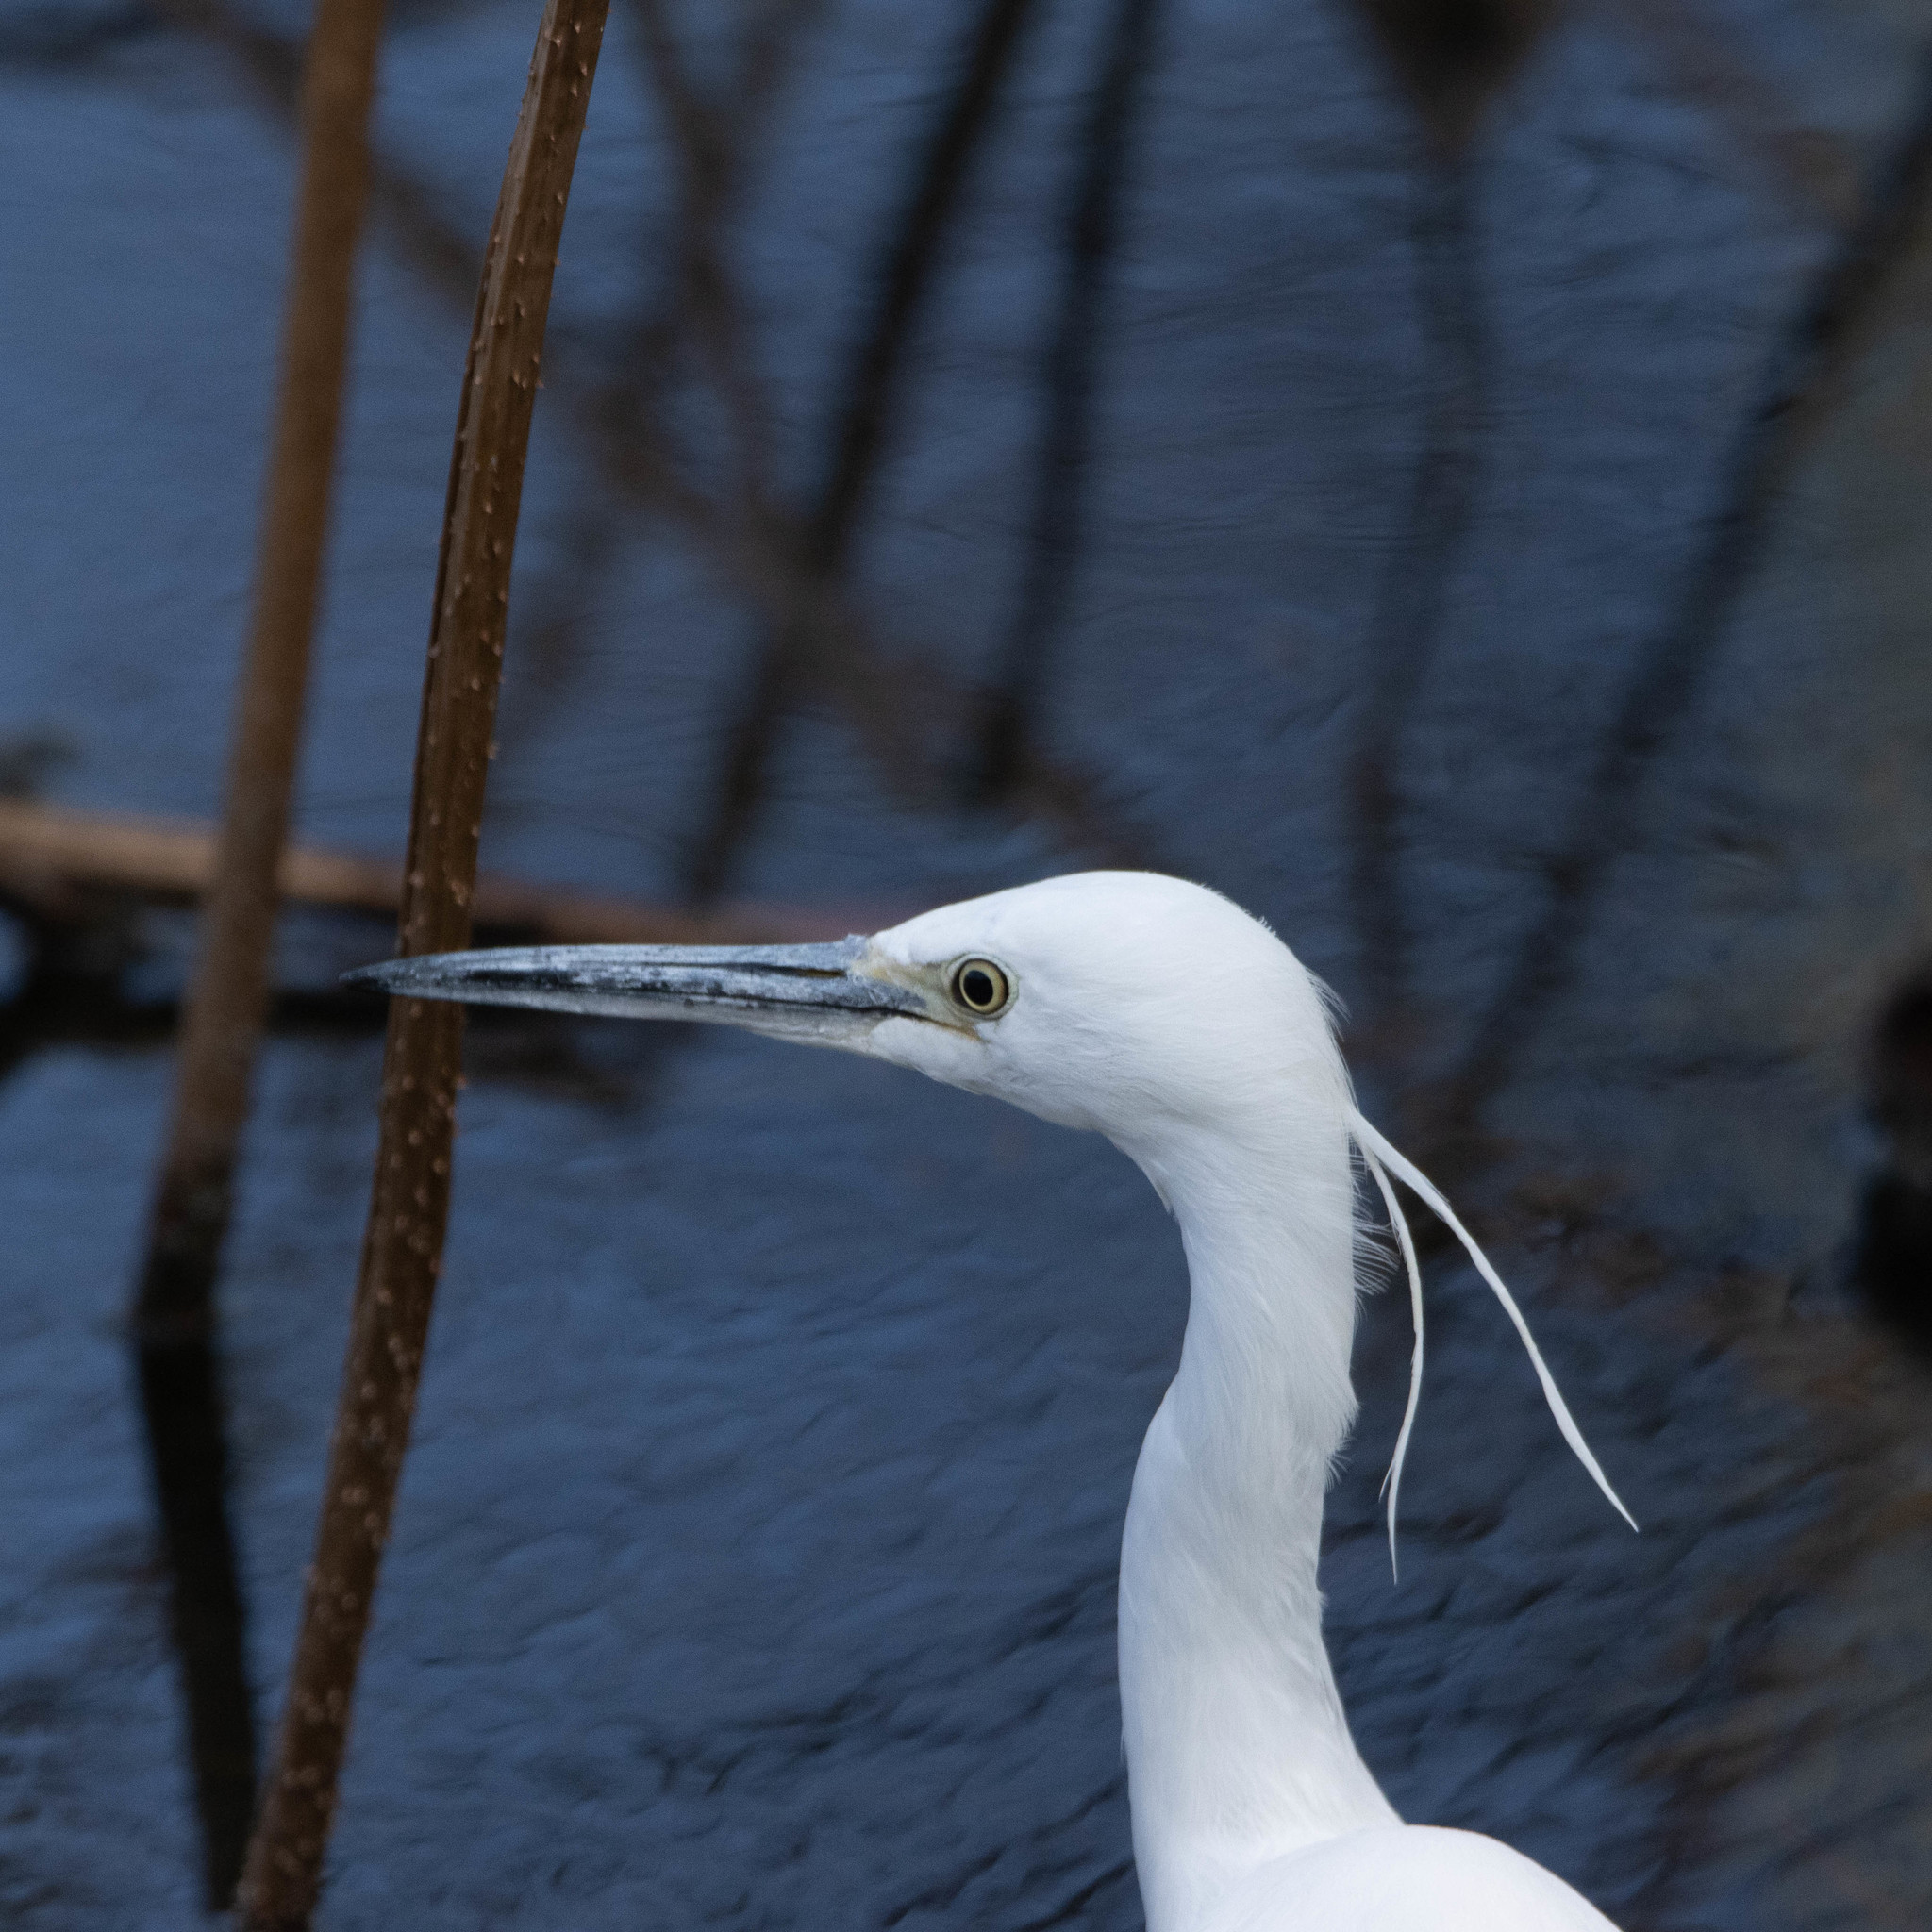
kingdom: Animalia
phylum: Chordata
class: Aves
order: Pelecaniformes
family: Ardeidae
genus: Egretta
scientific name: Egretta garzetta
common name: Little egret
